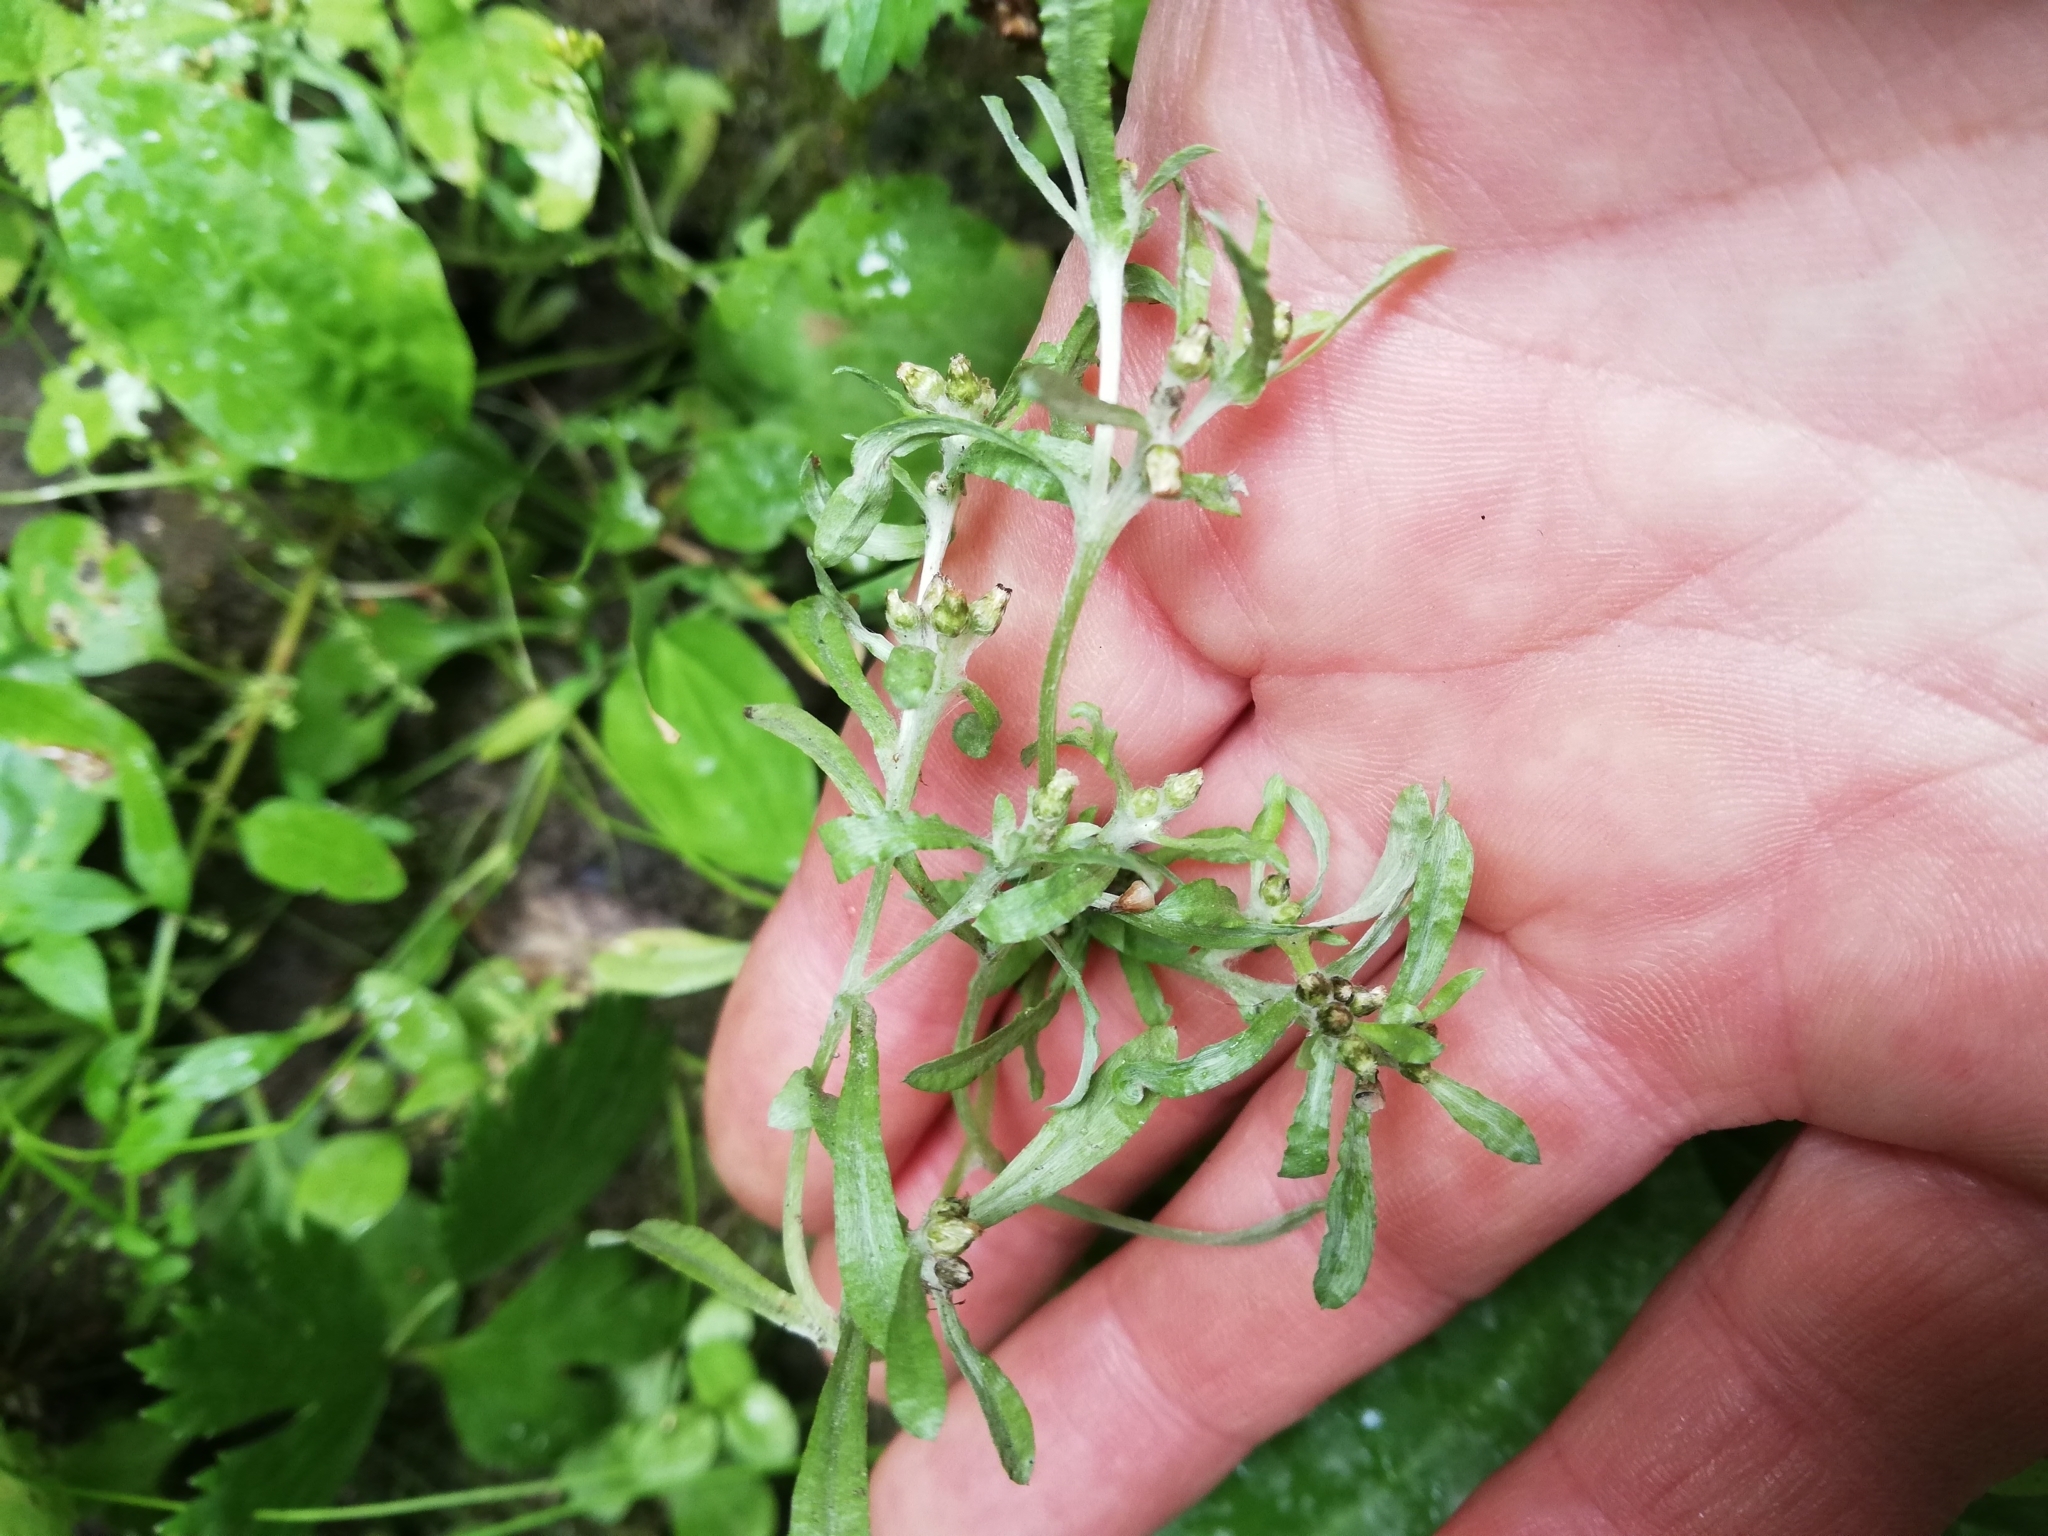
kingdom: Plantae
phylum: Tracheophyta
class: Magnoliopsida
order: Asterales
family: Asteraceae
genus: Gnaphalium
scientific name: Gnaphalium uliginosum
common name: Marsh cudweed
